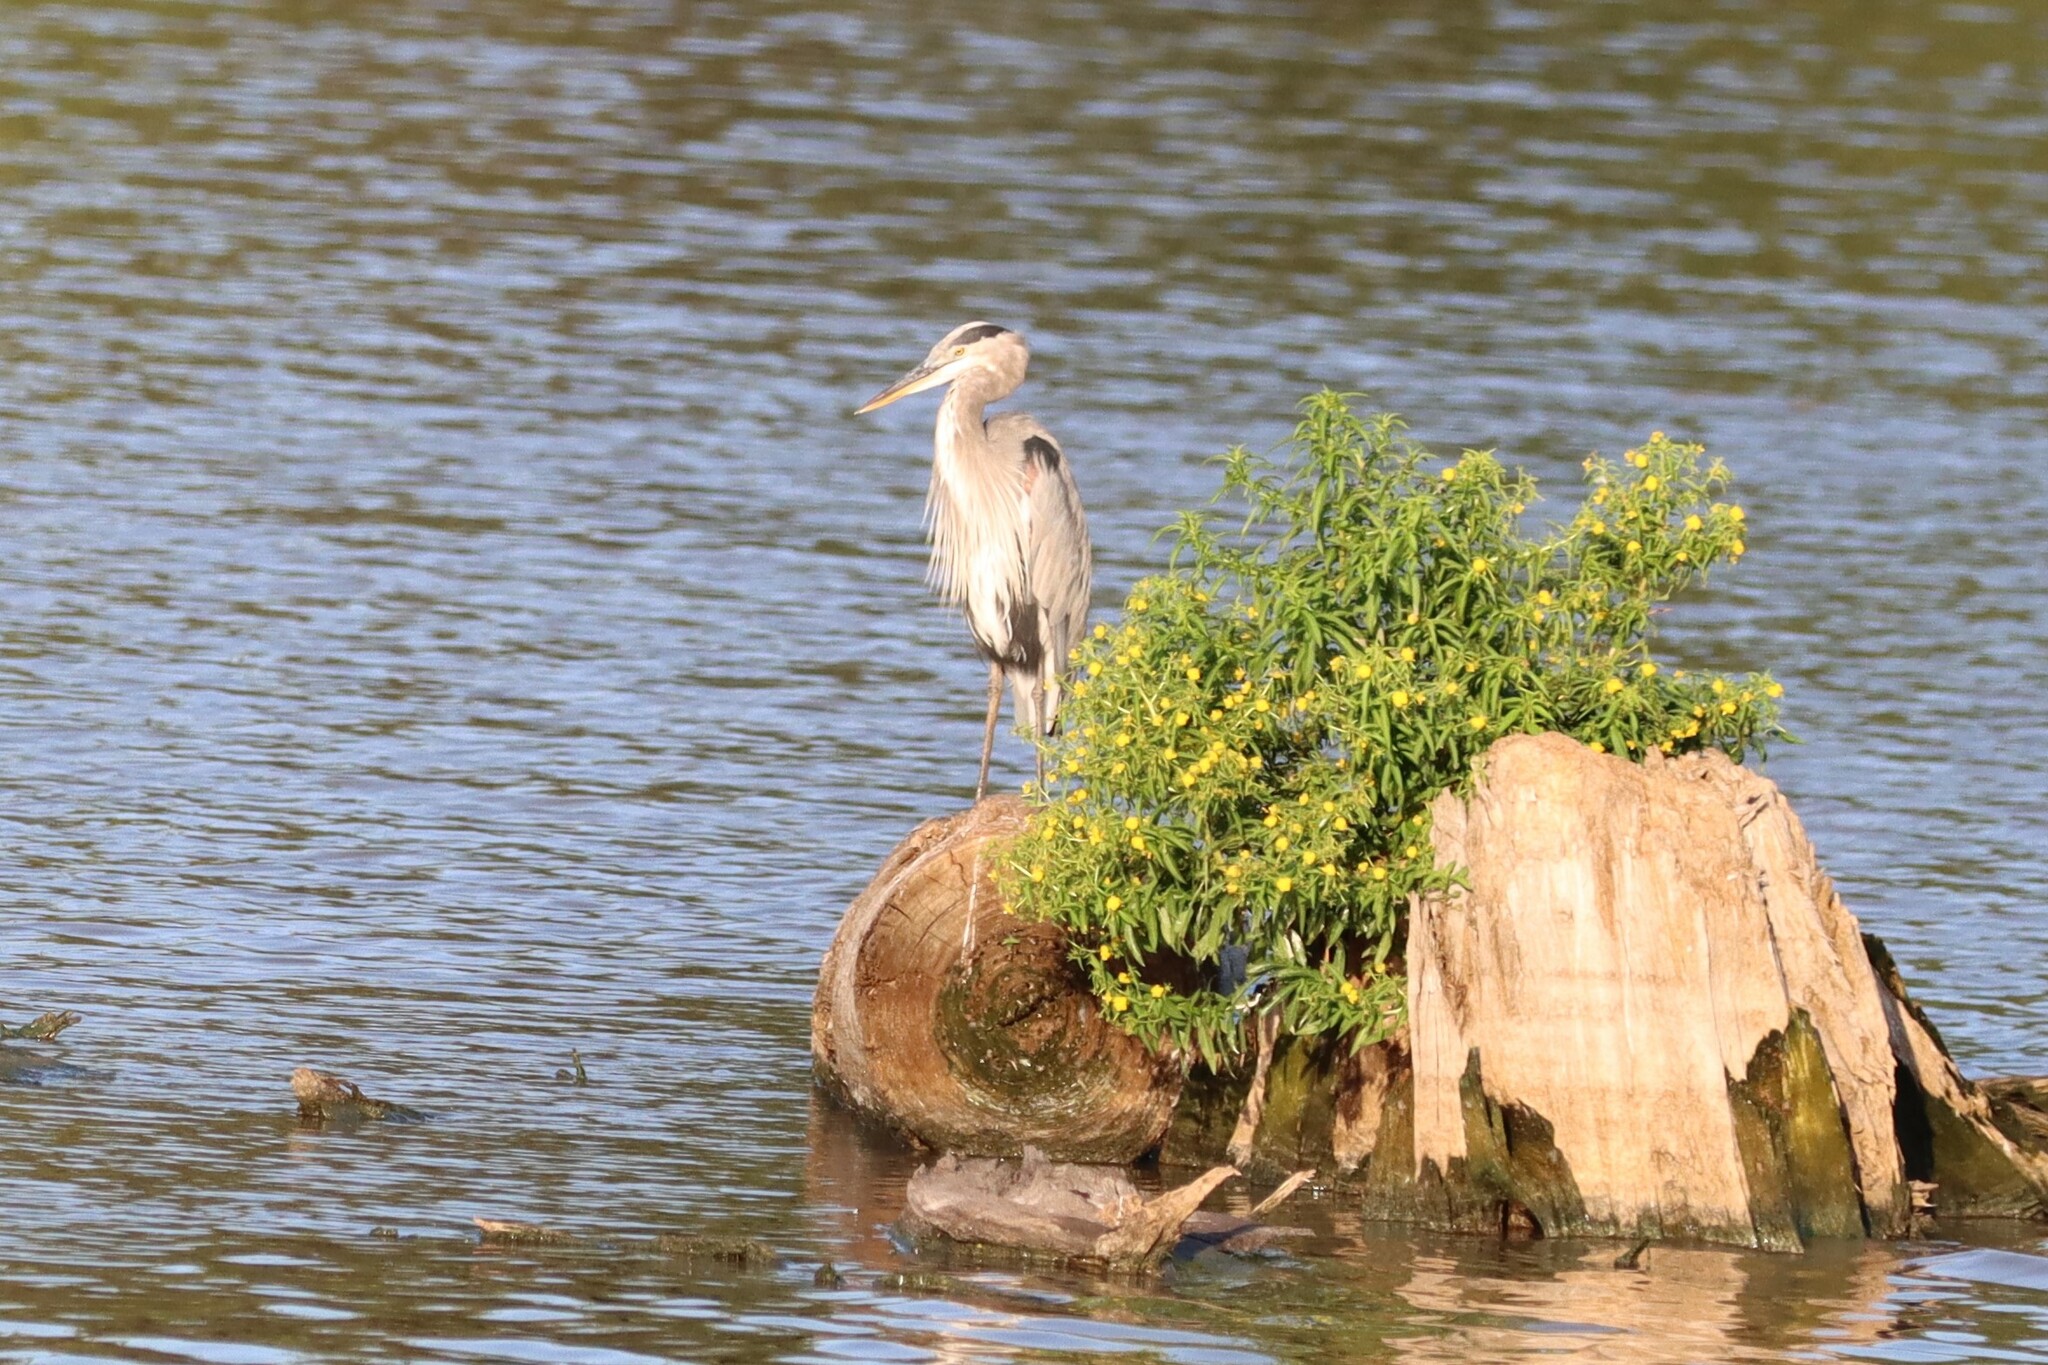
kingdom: Animalia
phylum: Chordata
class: Aves
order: Pelecaniformes
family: Ardeidae
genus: Ardea
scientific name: Ardea herodias
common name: Great blue heron
